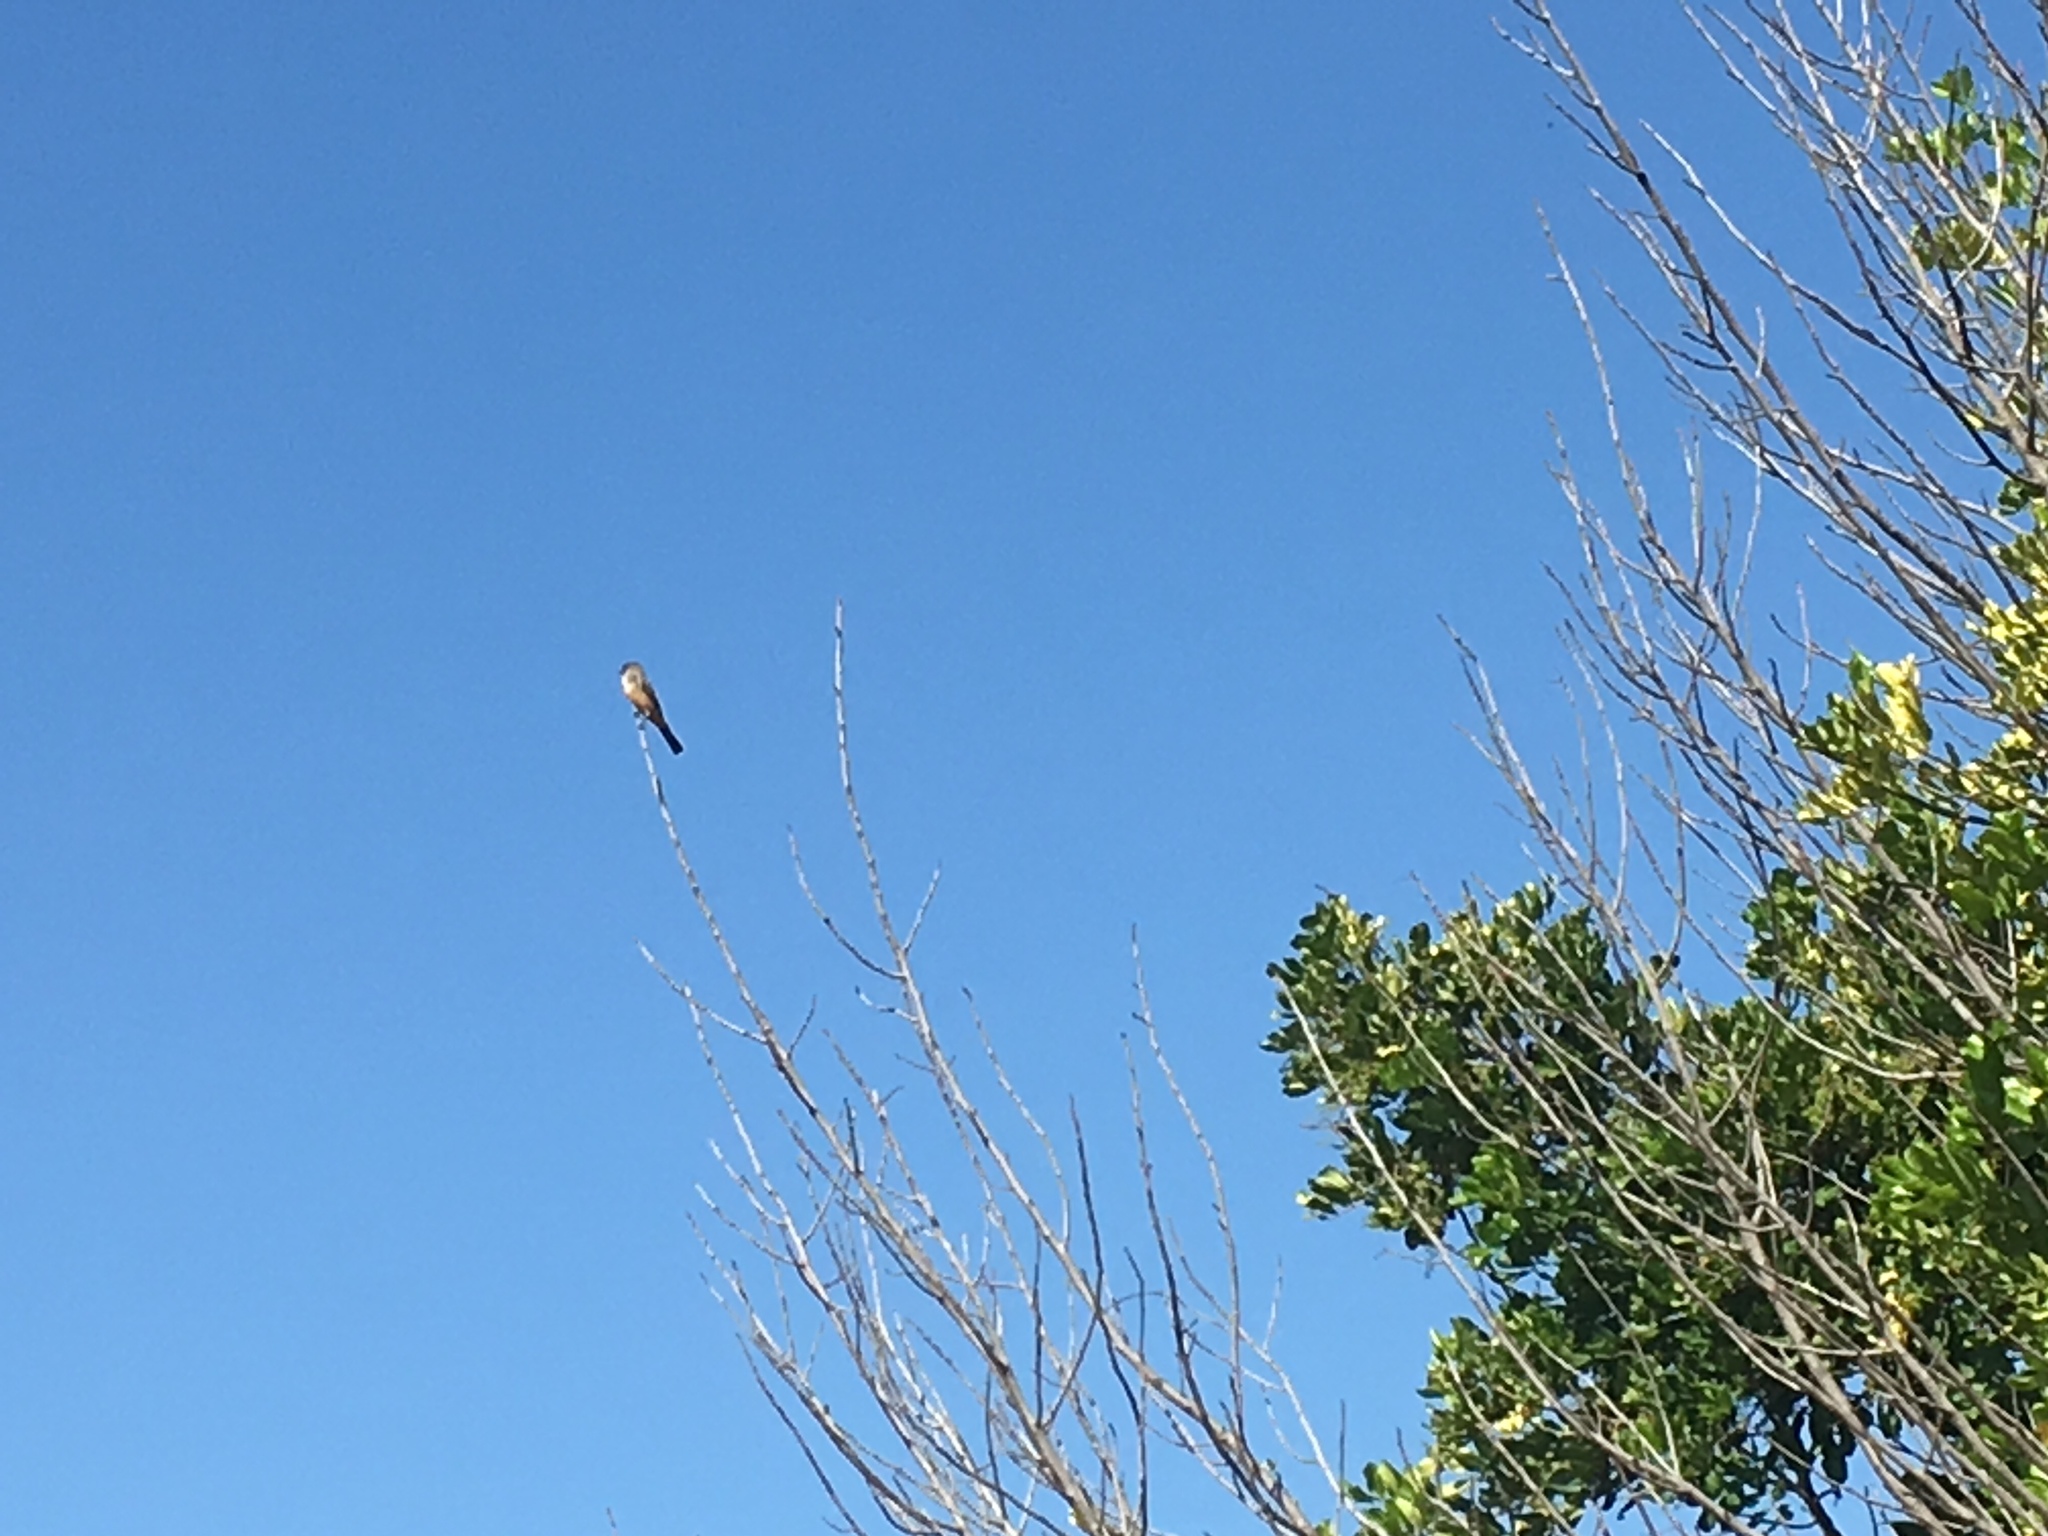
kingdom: Animalia
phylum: Chordata
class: Aves
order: Passeriformes
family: Tyrannidae
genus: Sayornis
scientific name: Sayornis saya
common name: Say's phoebe
